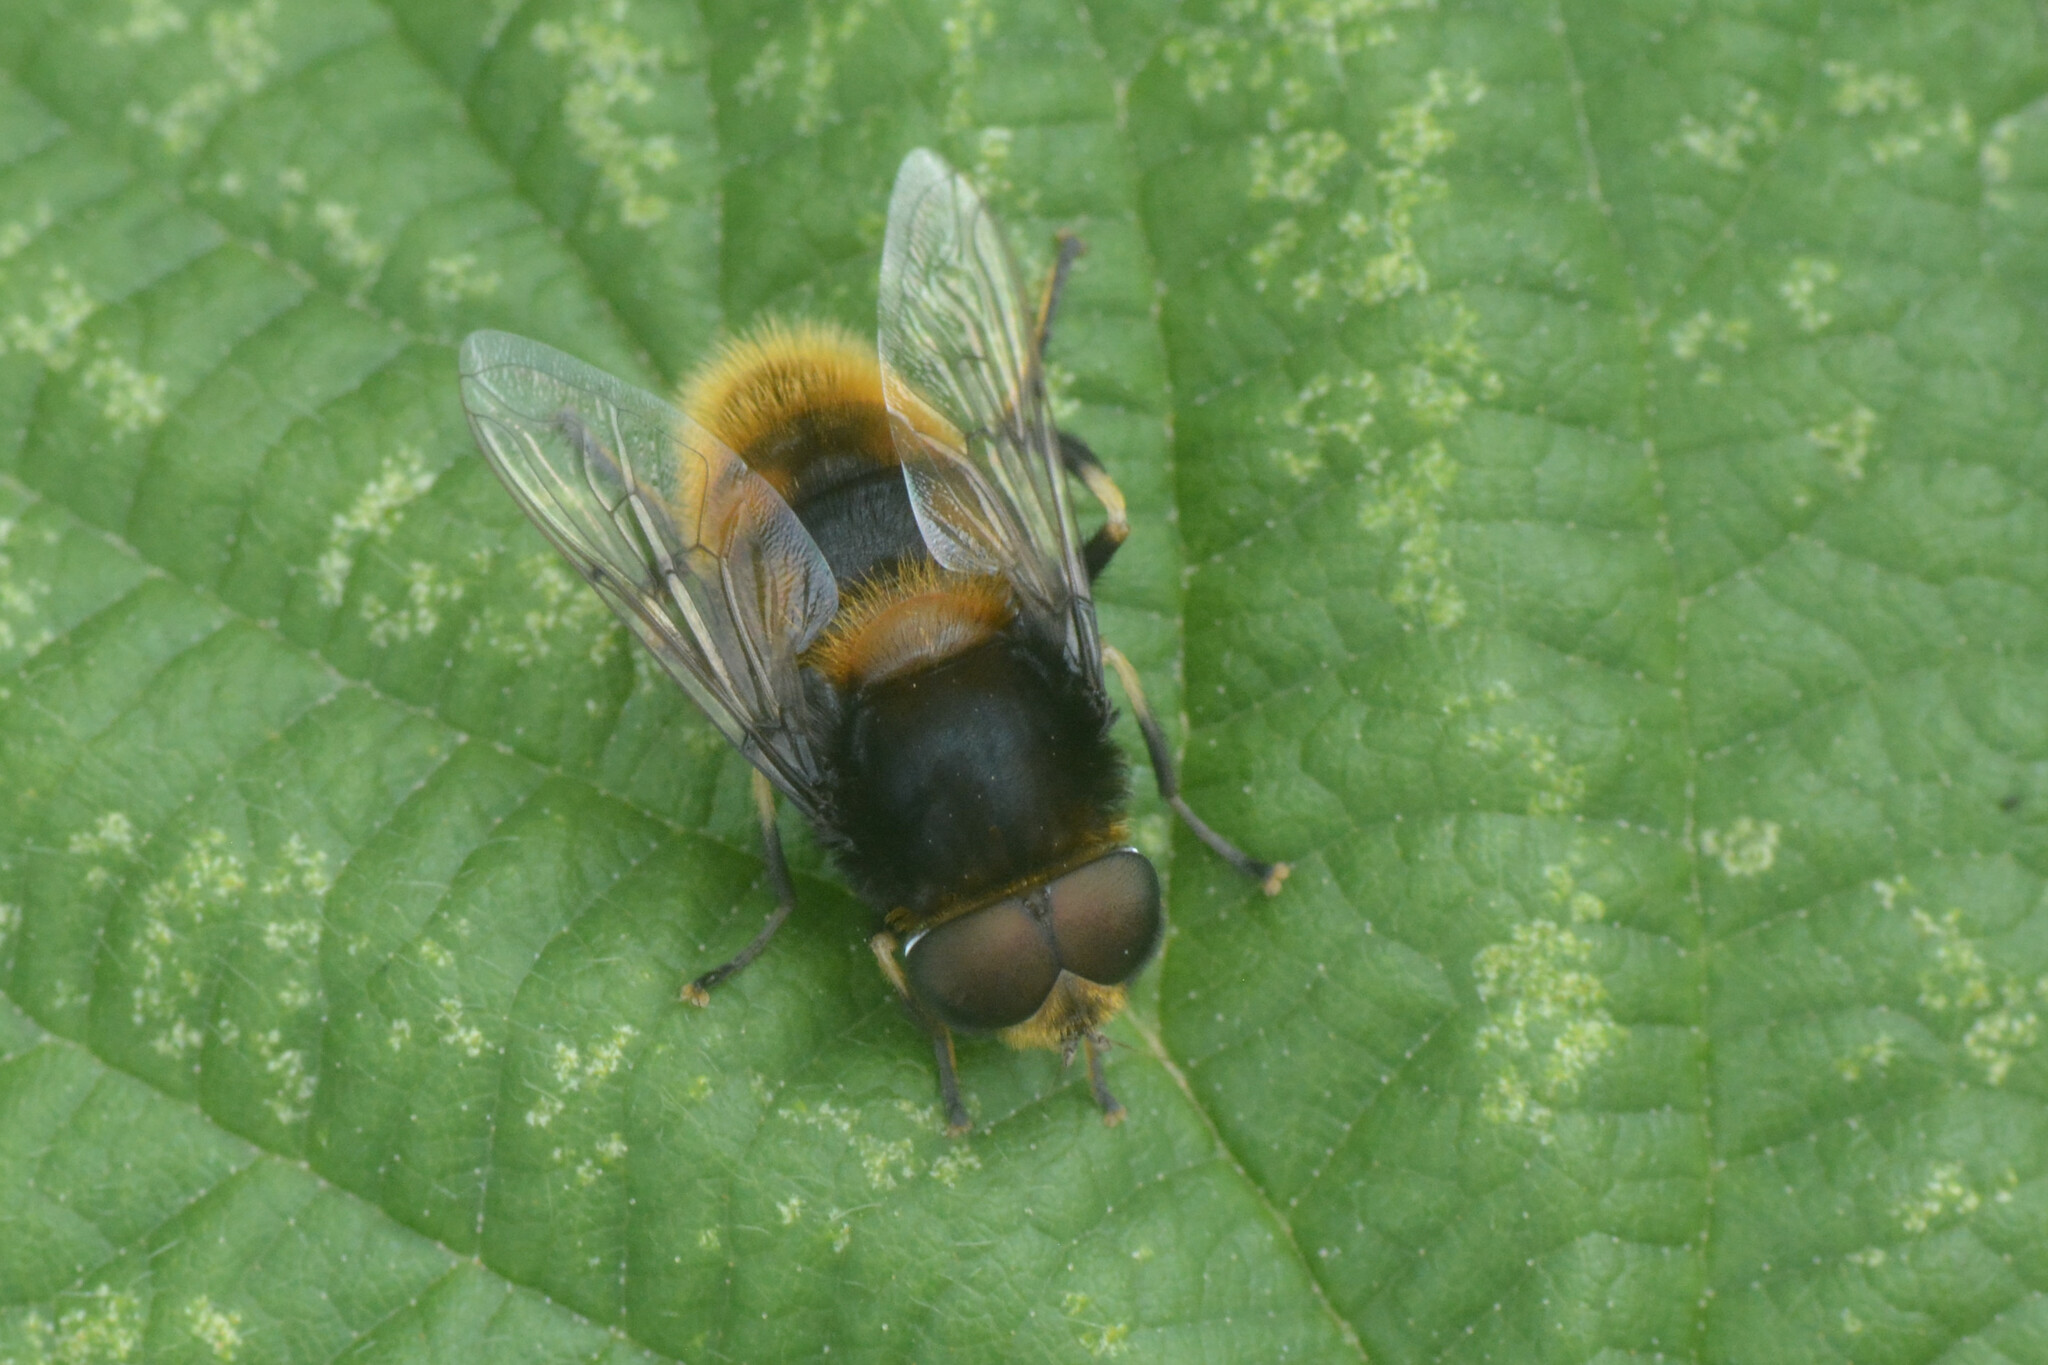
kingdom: Animalia
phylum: Arthropoda
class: Insecta
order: Diptera
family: Syrphidae
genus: Eristalis
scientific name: Eristalis intricaria
